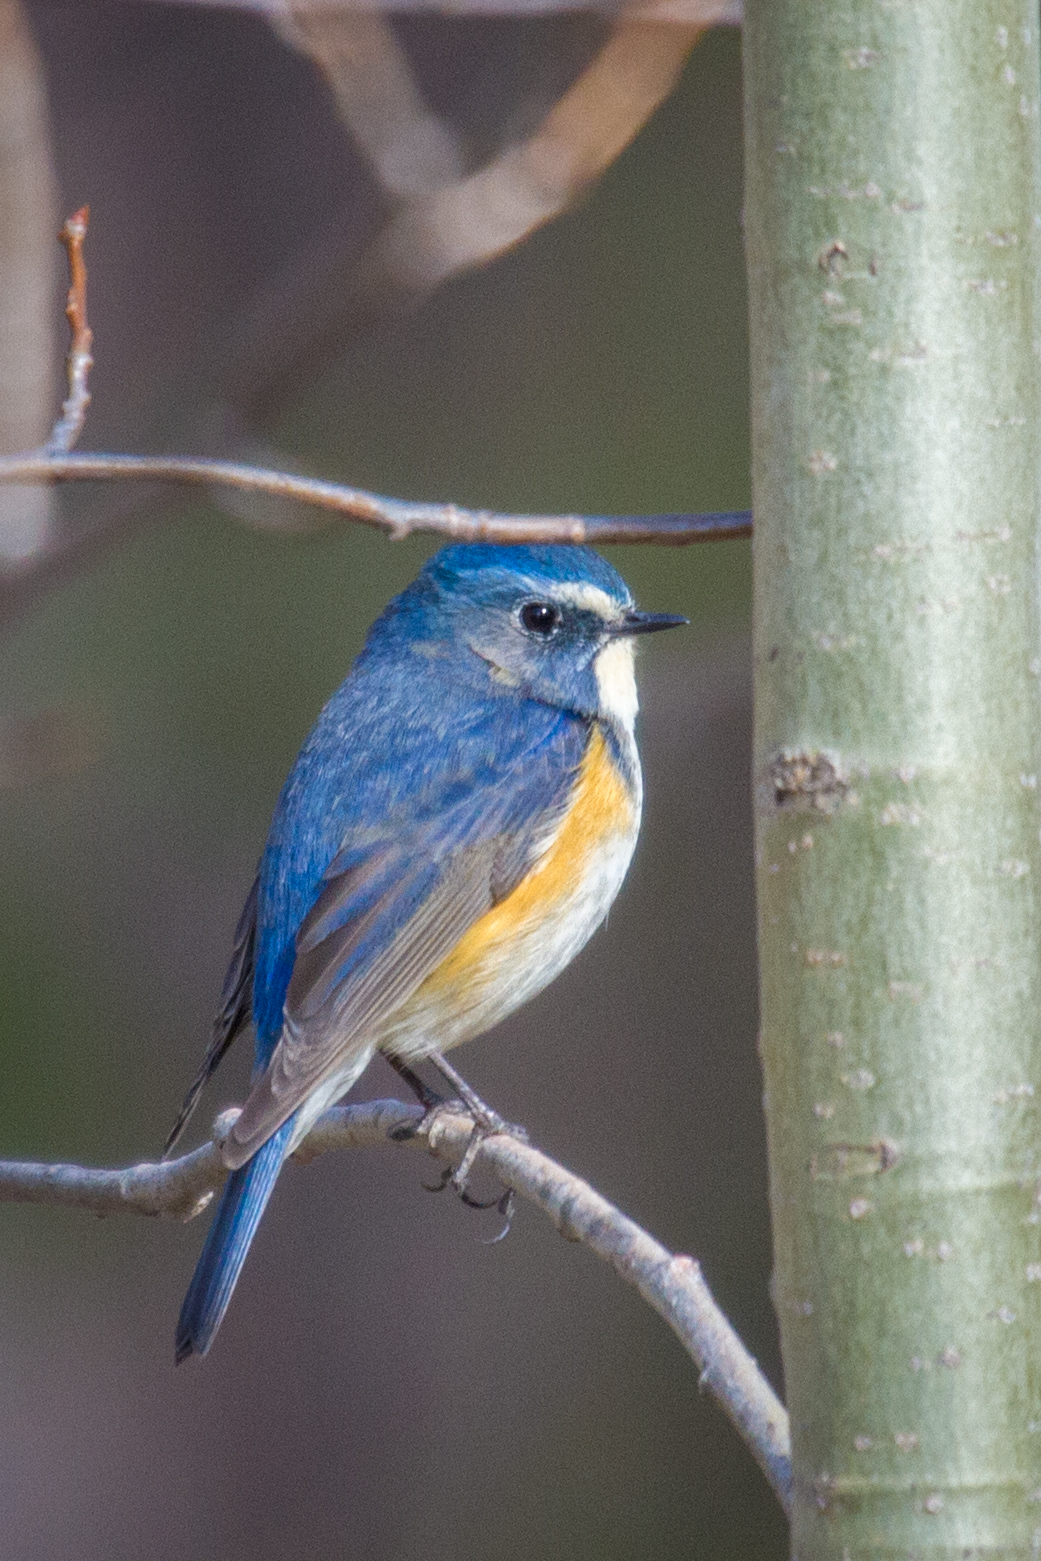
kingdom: Animalia
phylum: Chordata
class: Aves
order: Passeriformes
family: Muscicapidae
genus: Tarsiger
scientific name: Tarsiger cyanurus
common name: Red-flanked bluetail
